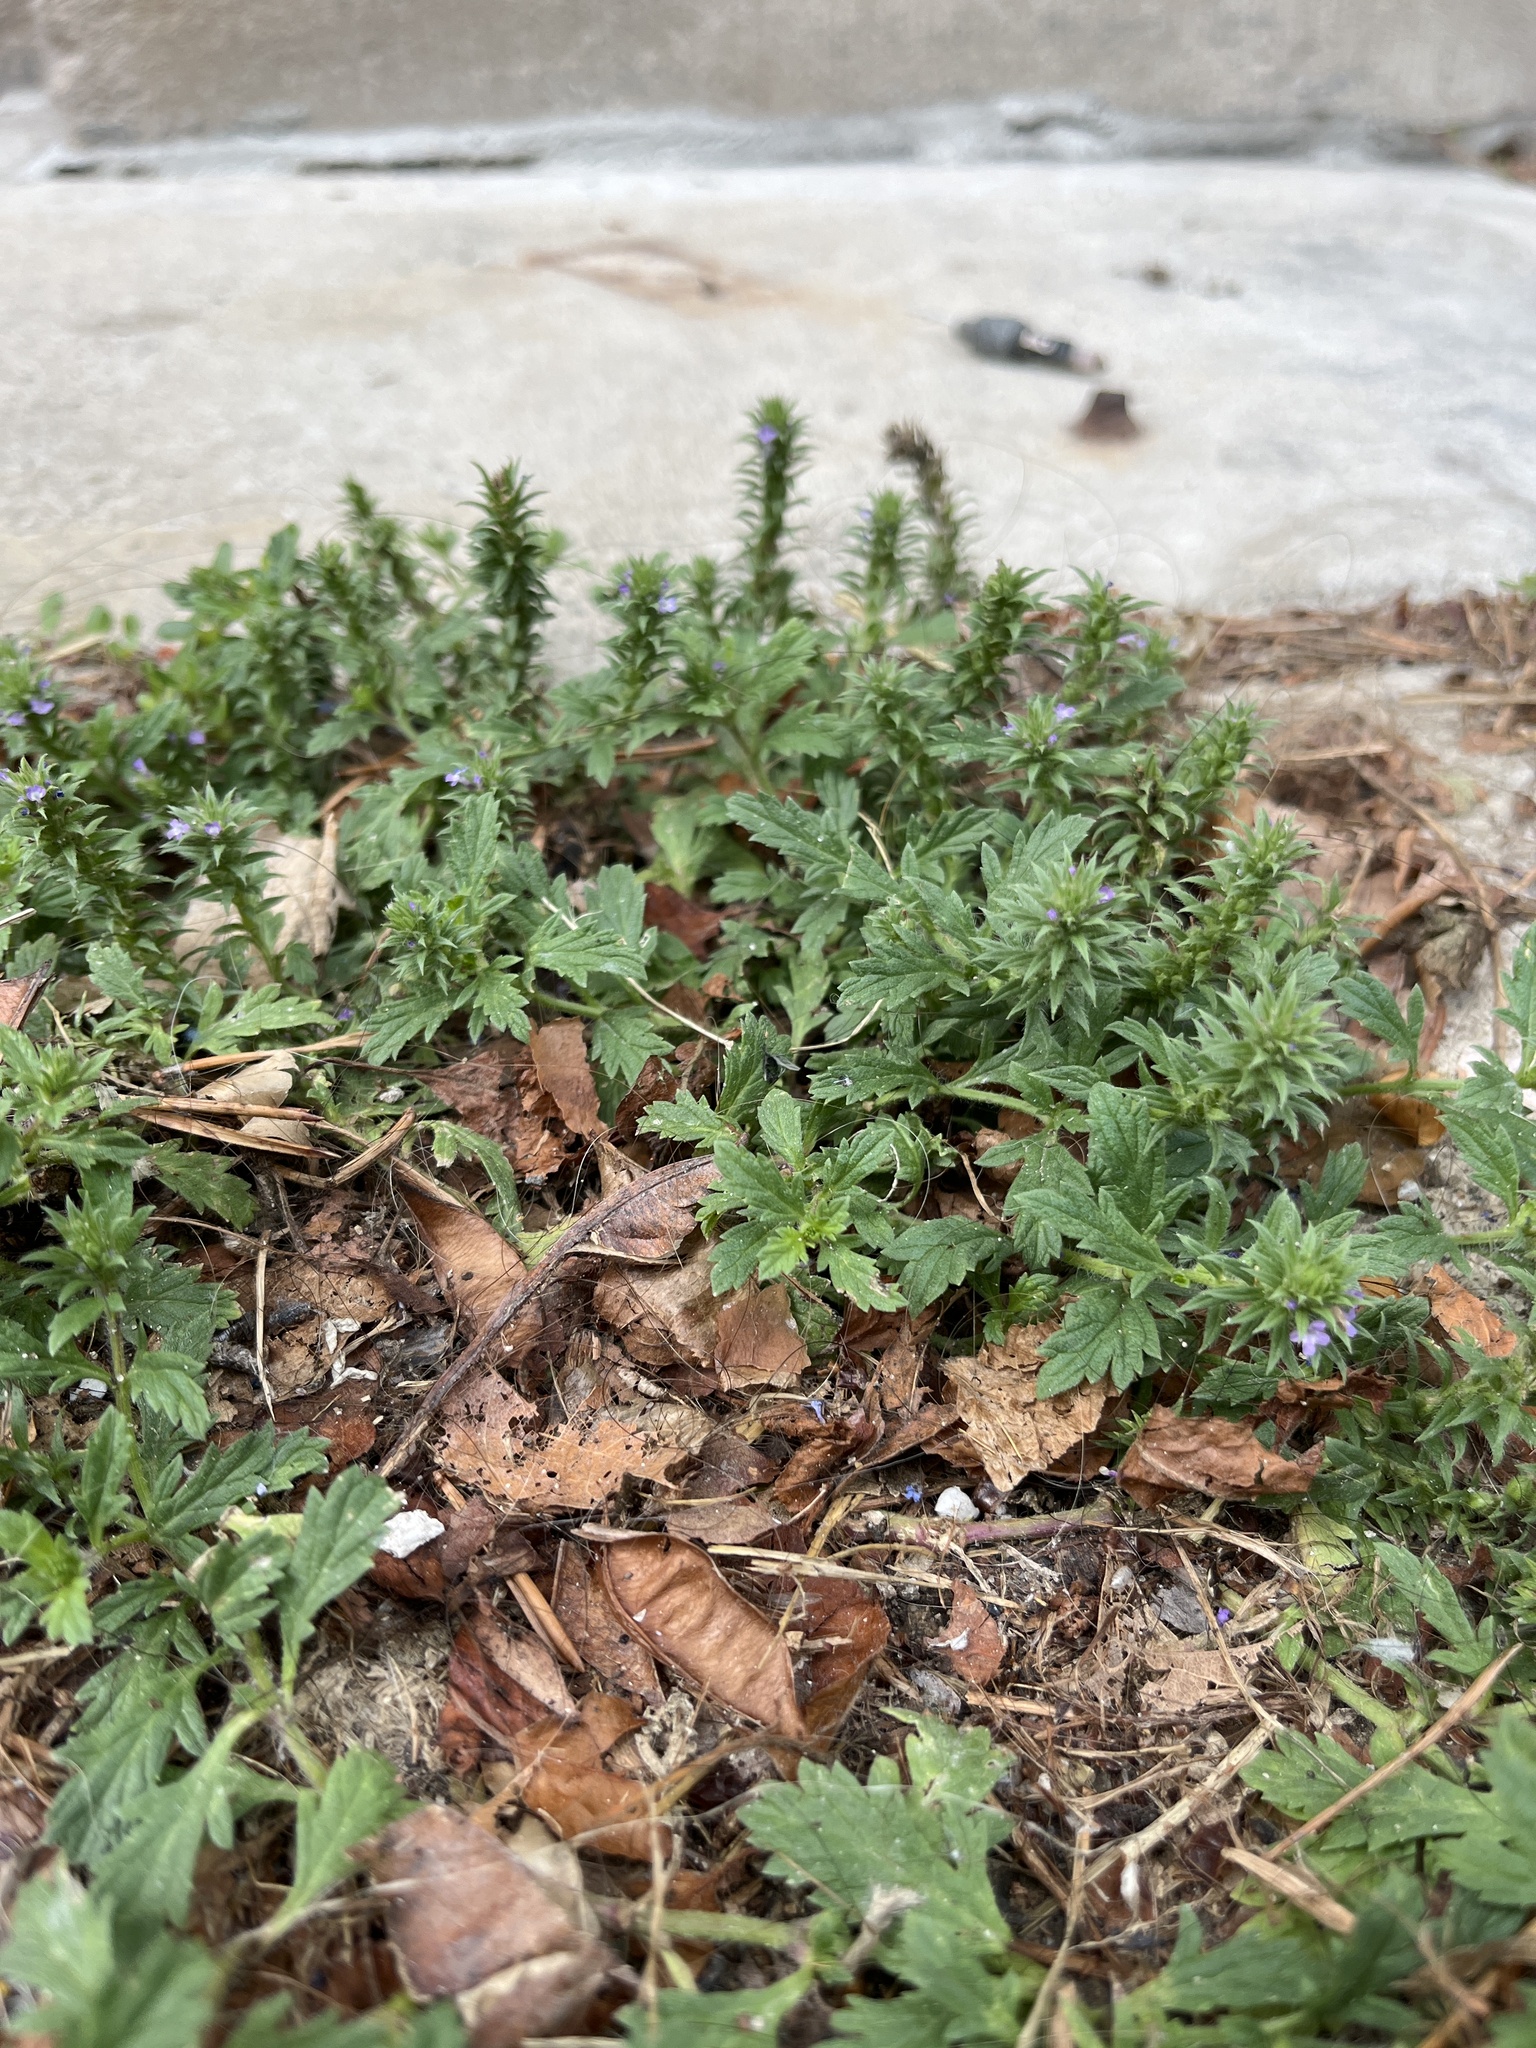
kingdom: Plantae
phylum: Tracheophyta
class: Magnoliopsida
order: Lamiales
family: Verbenaceae
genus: Verbena
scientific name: Verbena bracteata
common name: Bracted vervain
